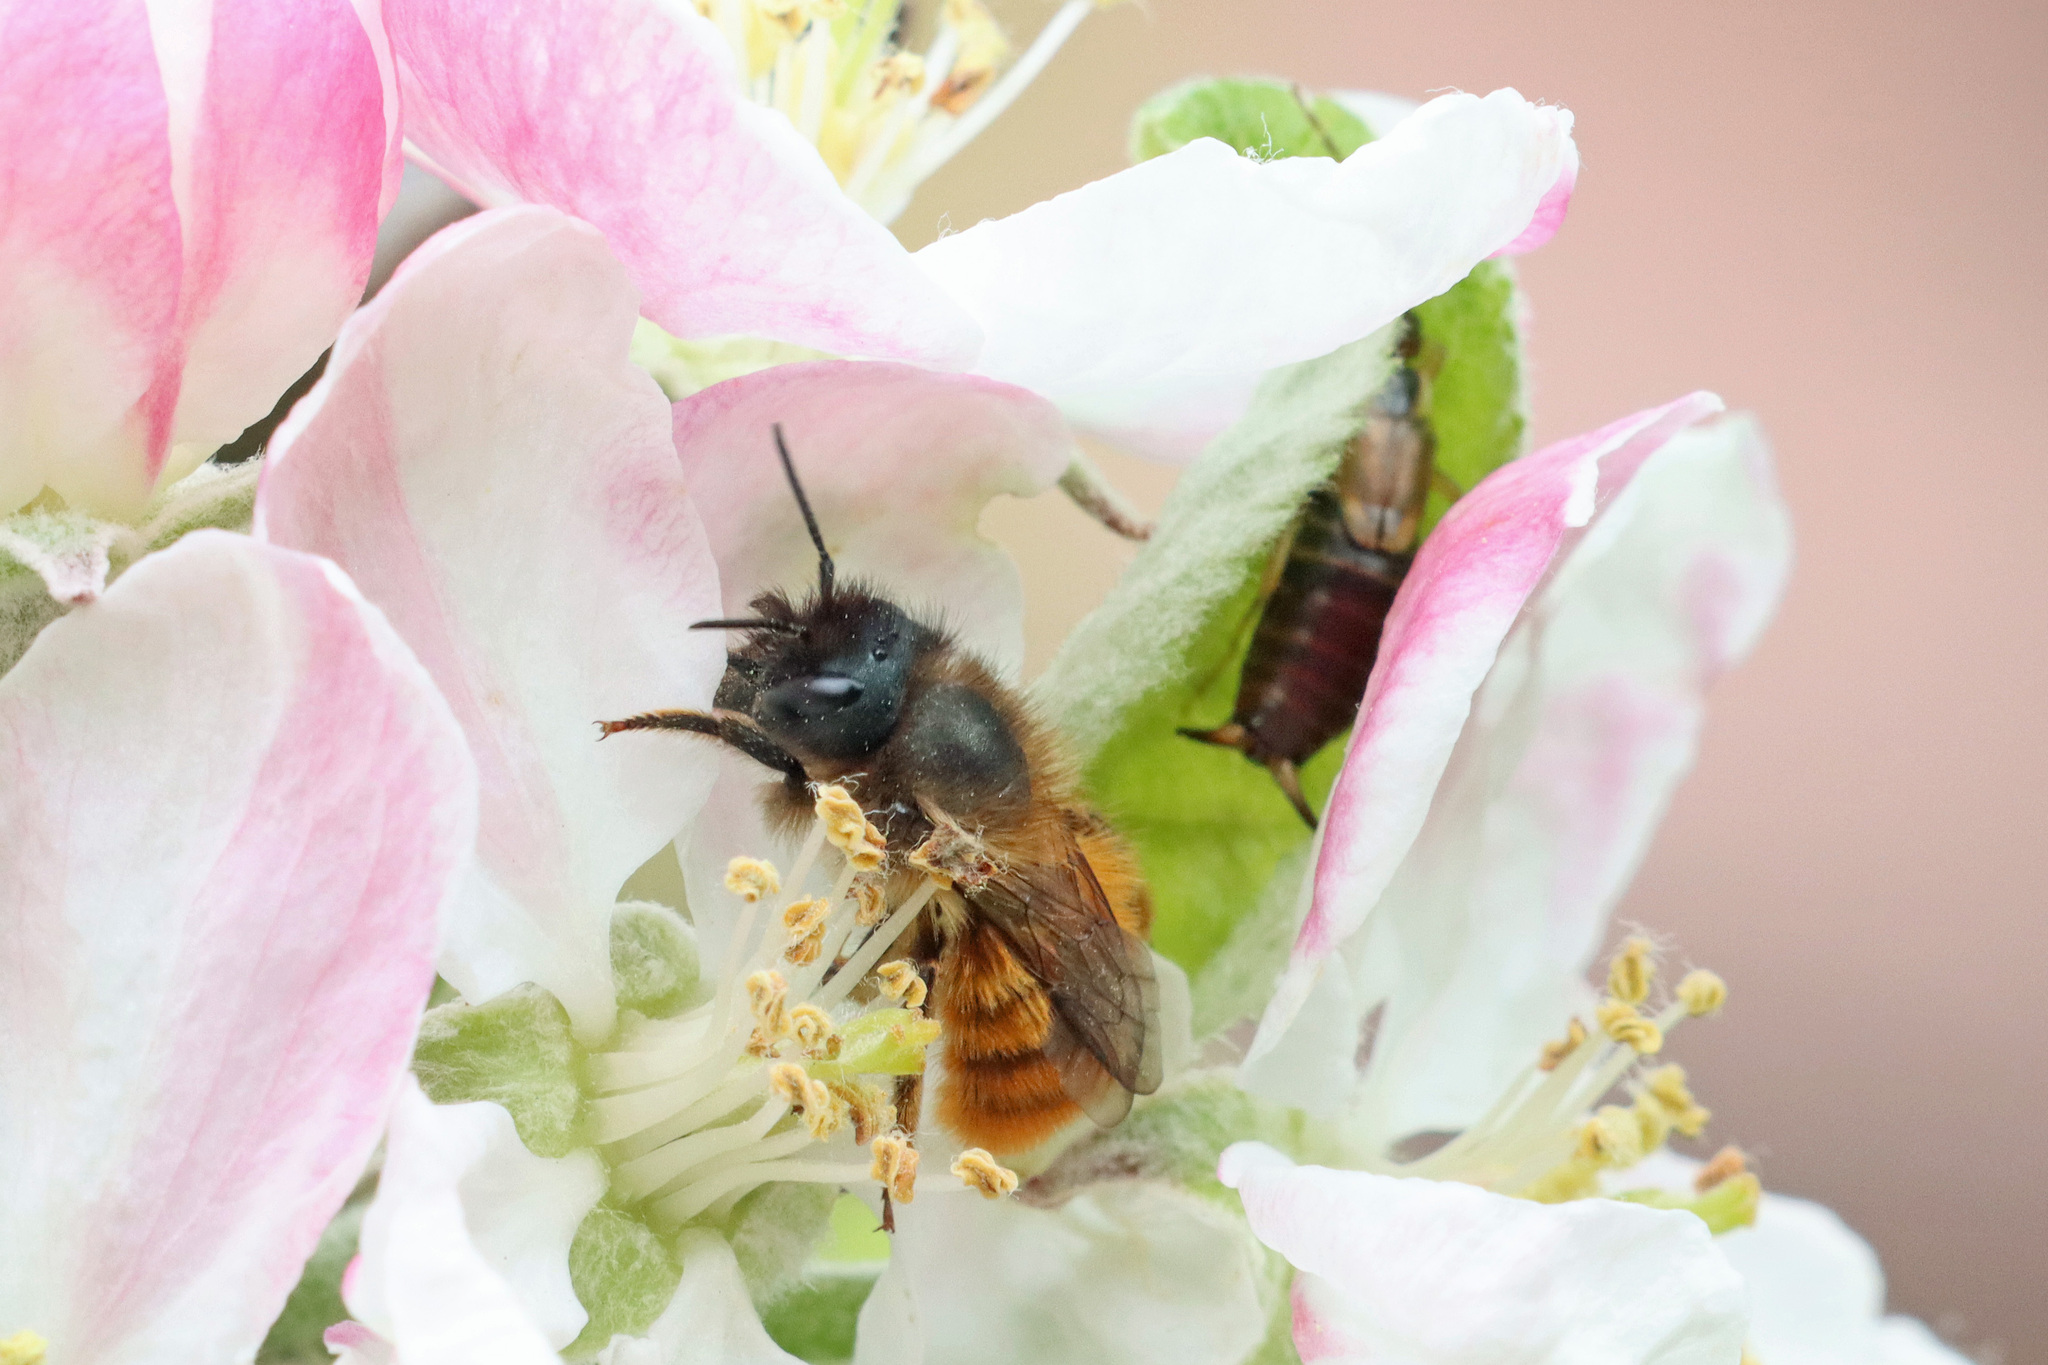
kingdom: Animalia
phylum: Arthropoda
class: Insecta
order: Hymenoptera
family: Megachilidae
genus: Osmia
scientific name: Osmia bicornis
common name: Red mason bee
